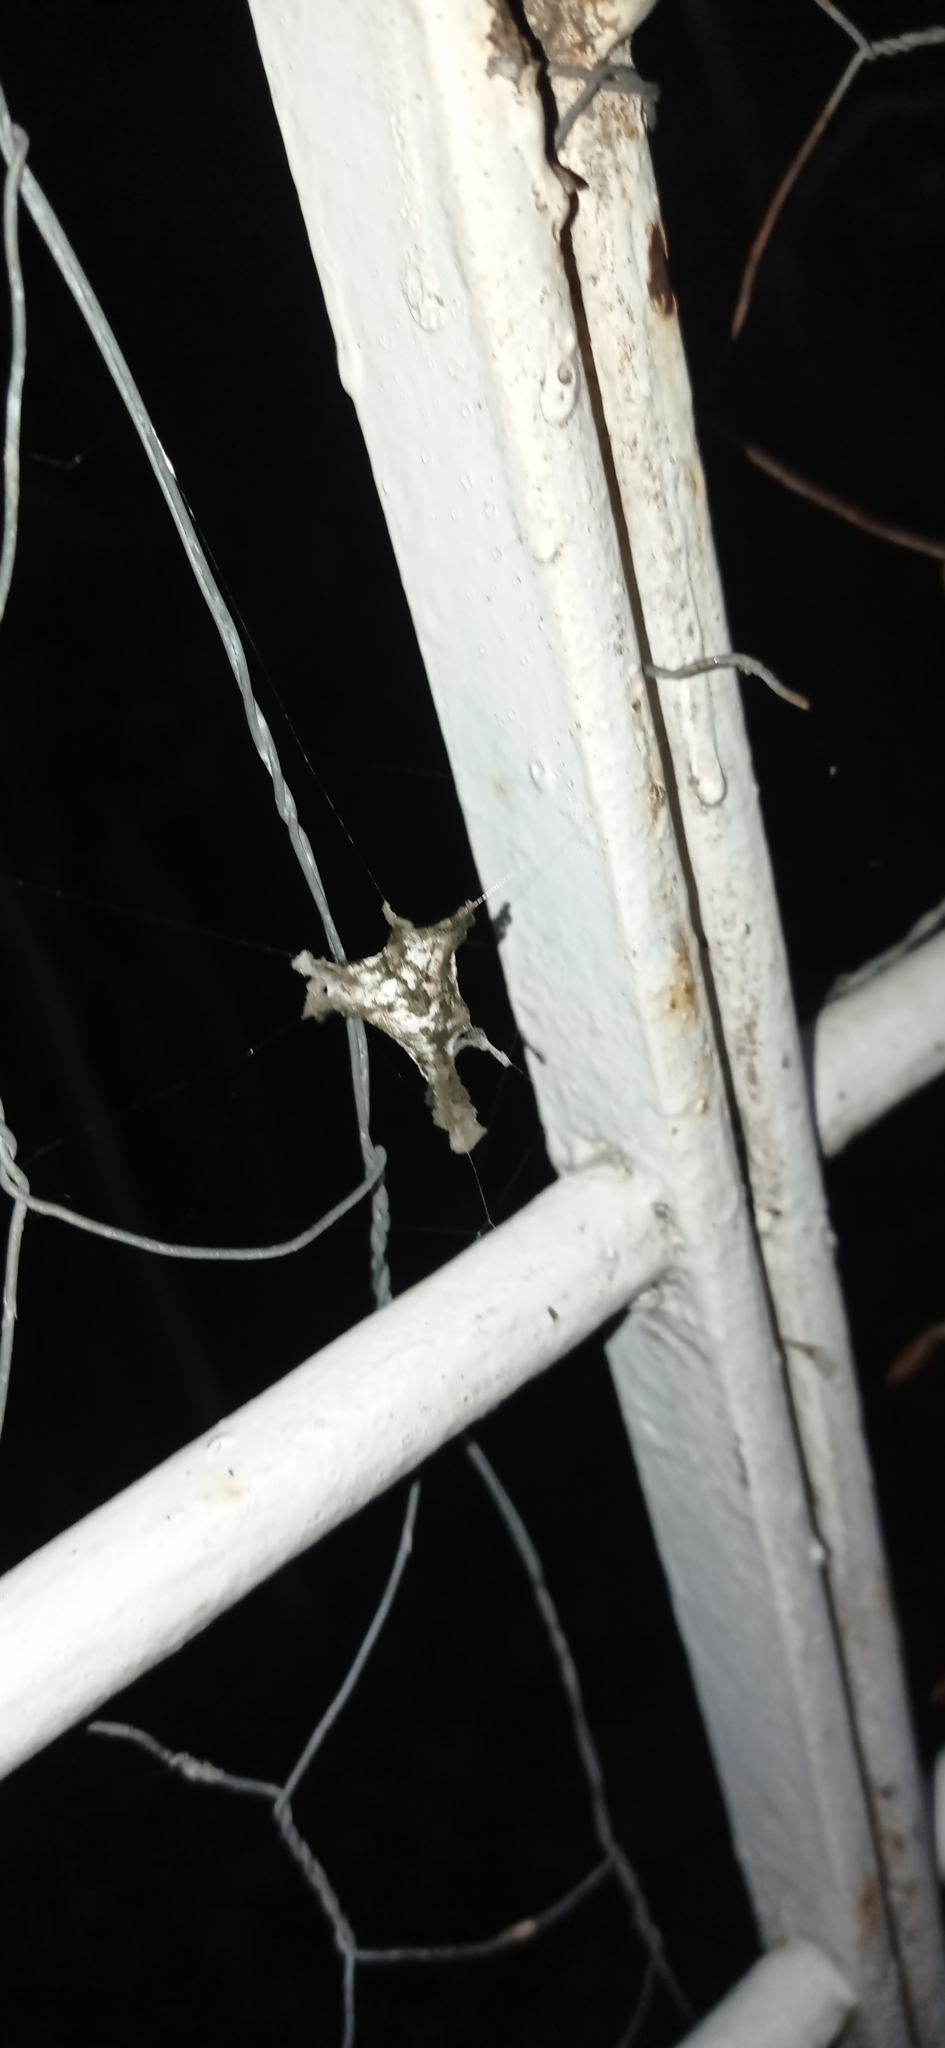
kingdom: Animalia
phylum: Arthropoda
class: Arachnida
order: Araneae
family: Araneidae
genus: Argiope
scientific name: Argiope argentata
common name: Orb weavers
